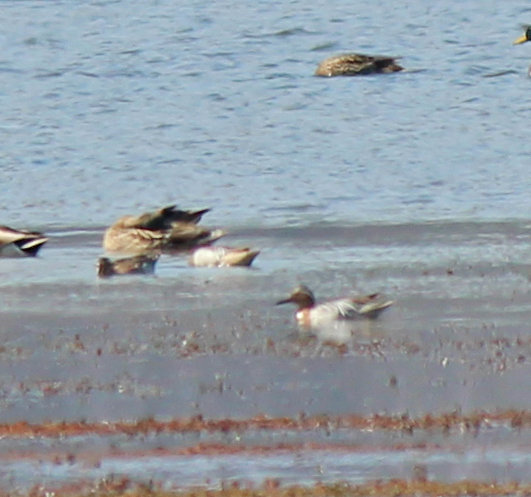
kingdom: Animalia
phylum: Chordata
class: Aves
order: Anseriformes
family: Anatidae
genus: Spatula
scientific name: Spatula querquedula
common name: Garganey
